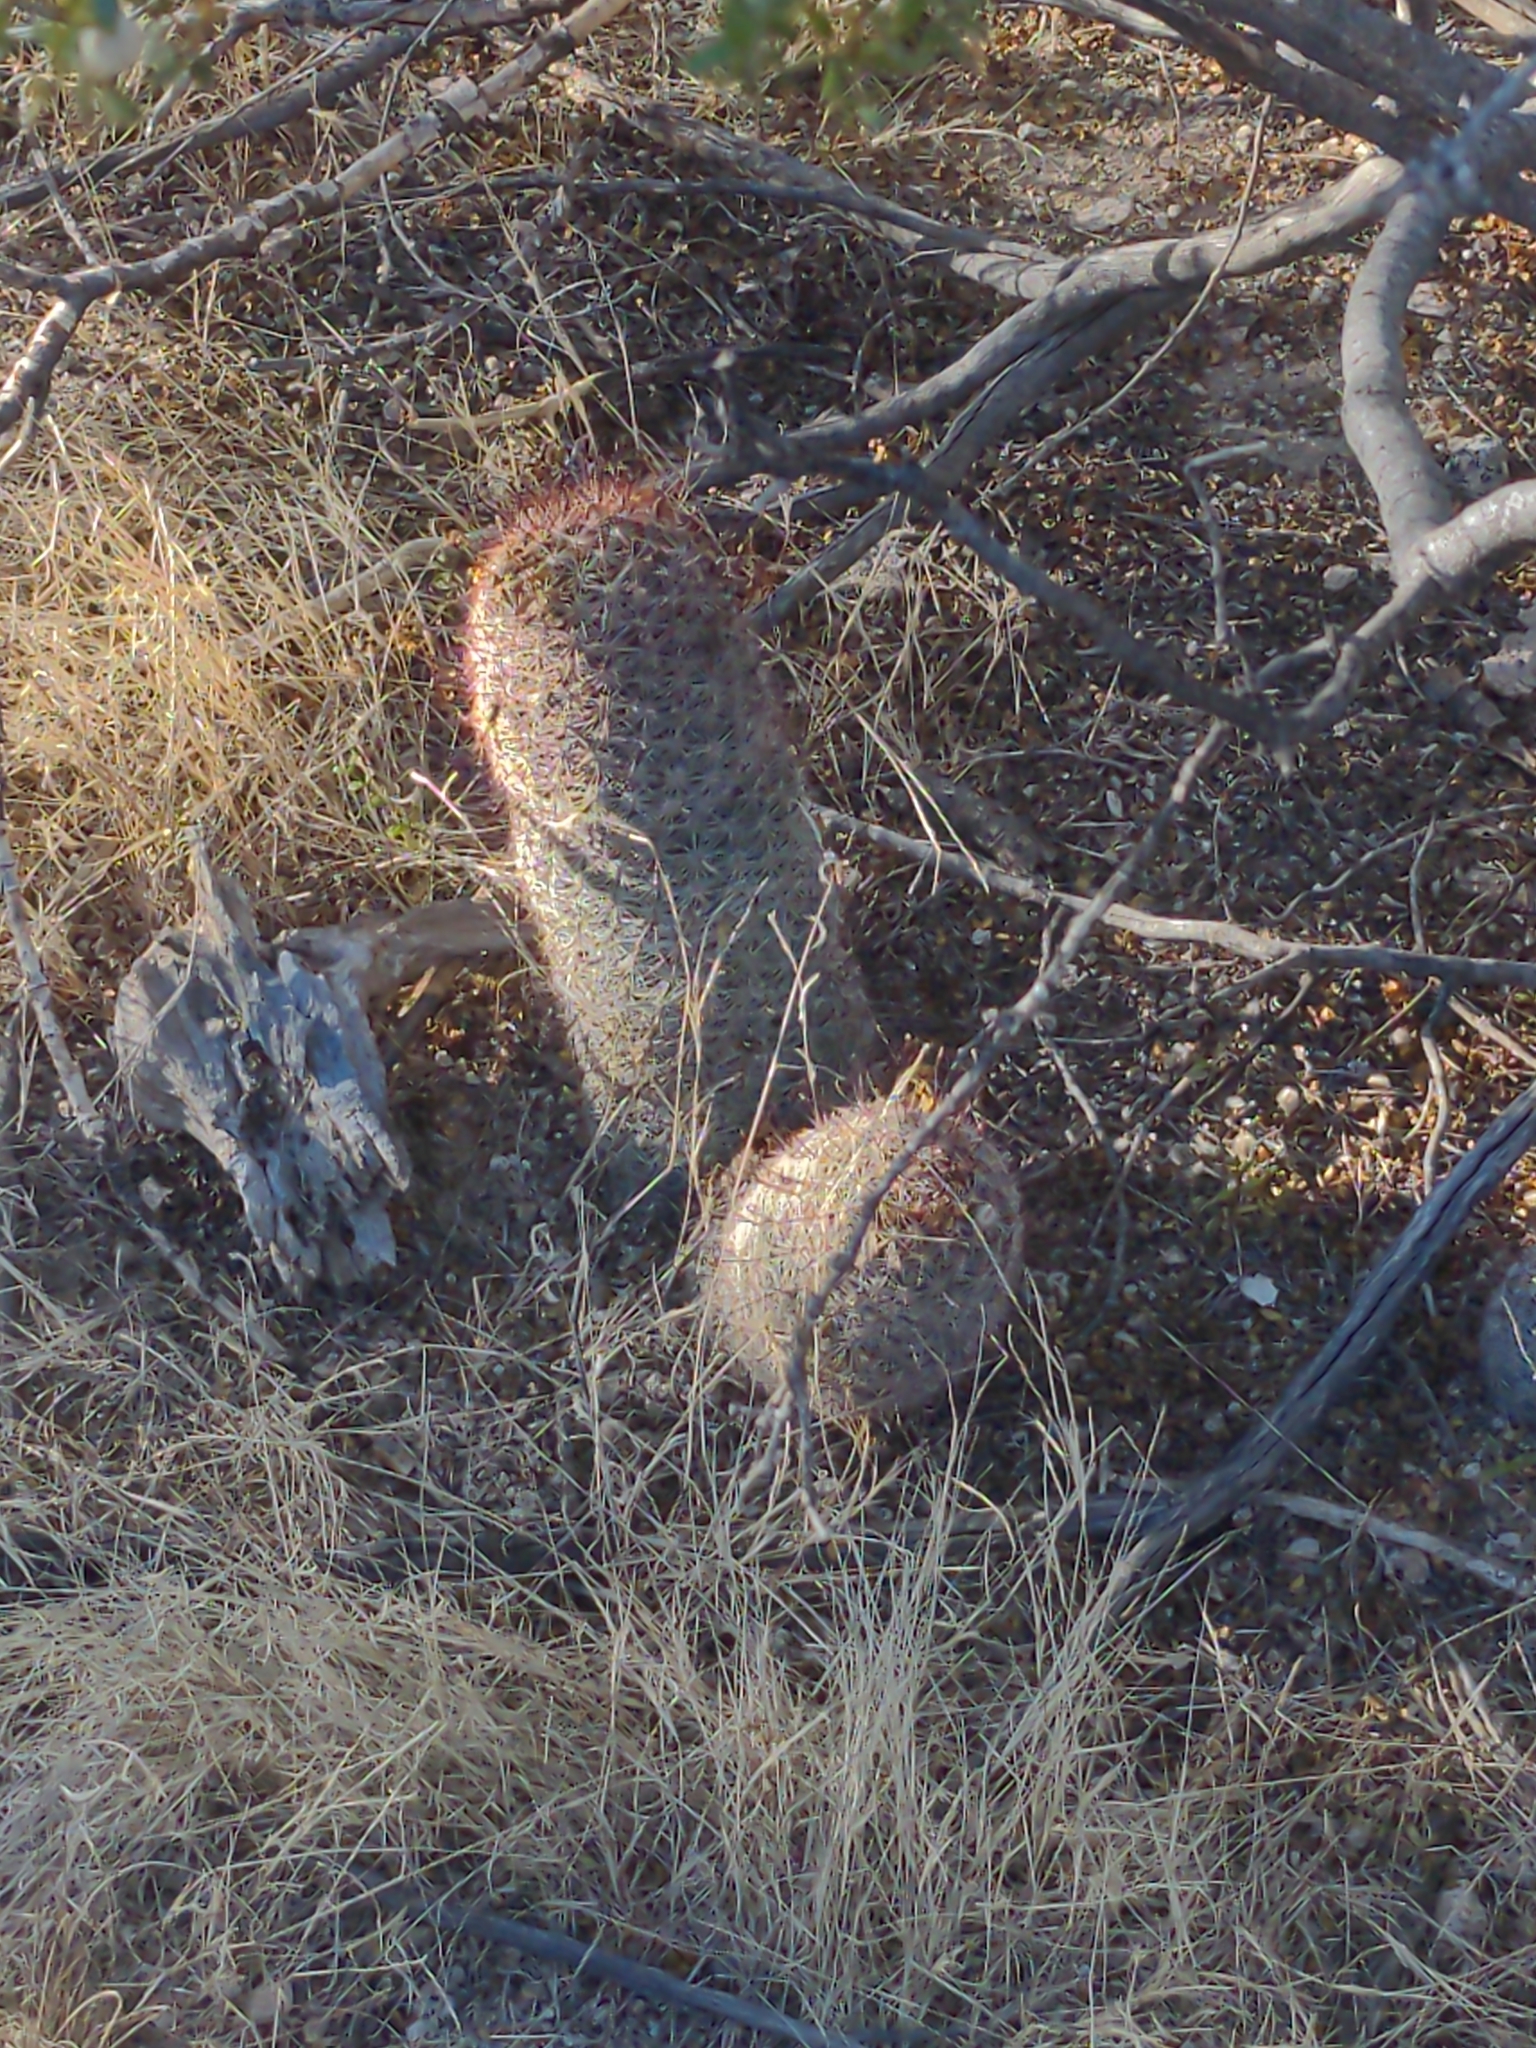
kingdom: Plantae
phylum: Tracheophyta
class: Magnoliopsida
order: Caryophyllales
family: Cactaceae
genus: Cochemiea
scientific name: Cochemiea grahamii
